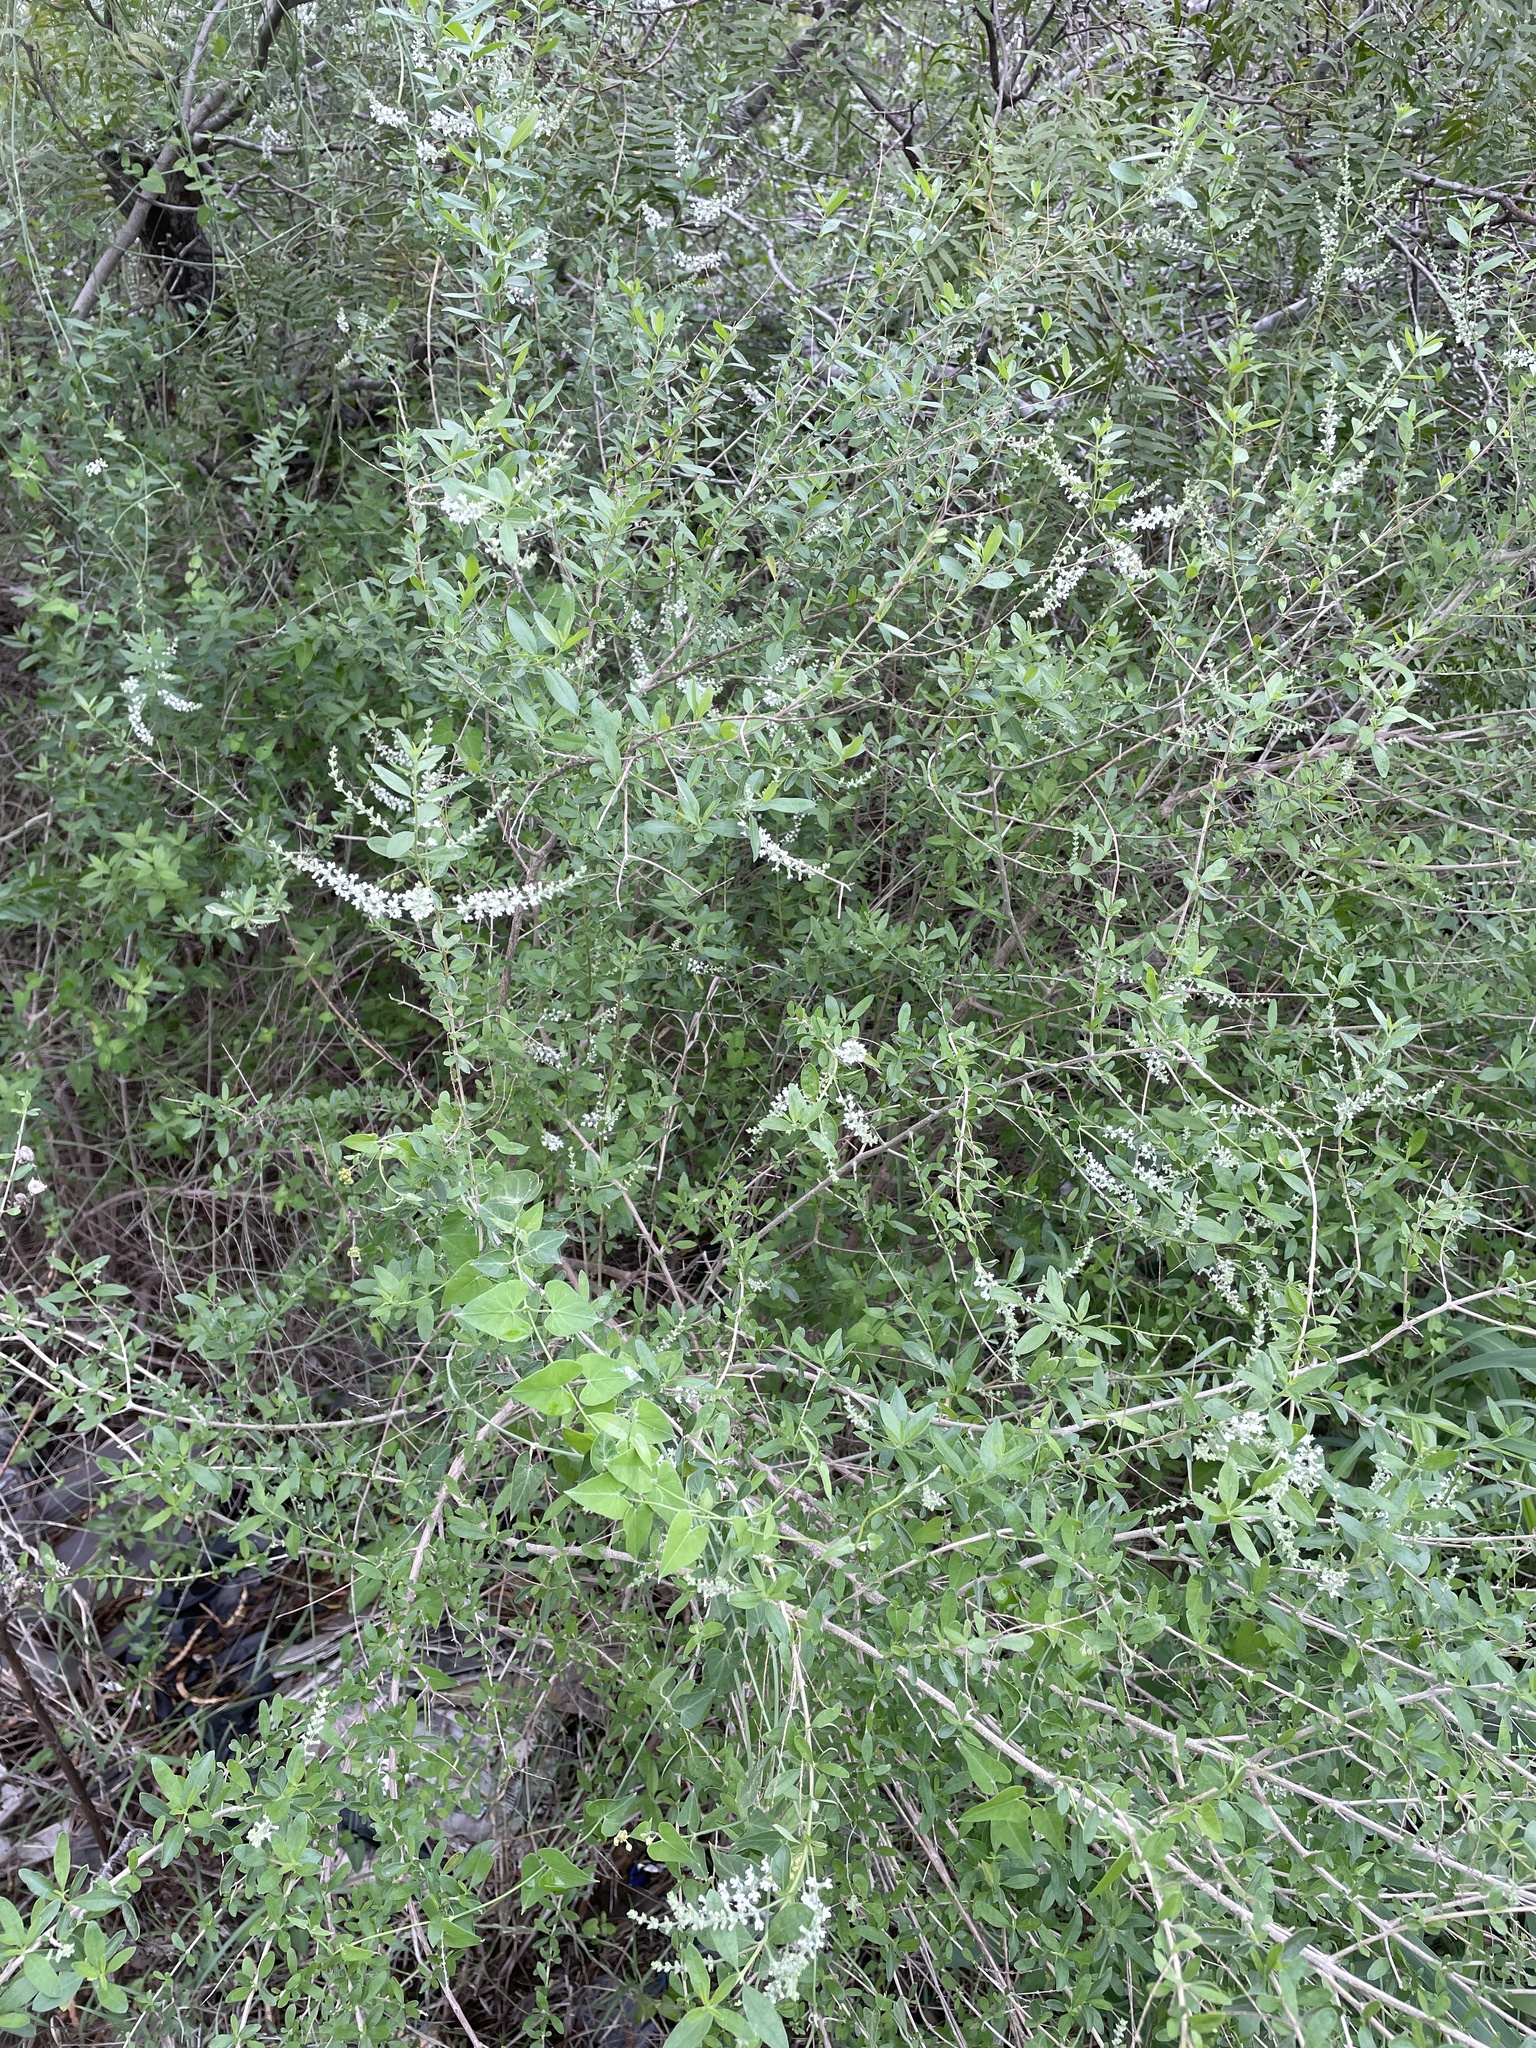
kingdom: Plantae
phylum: Tracheophyta
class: Magnoliopsida
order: Lamiales
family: Verbenaceae
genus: Aloysia
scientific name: Aloysia gratissima
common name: Common bee-brush
